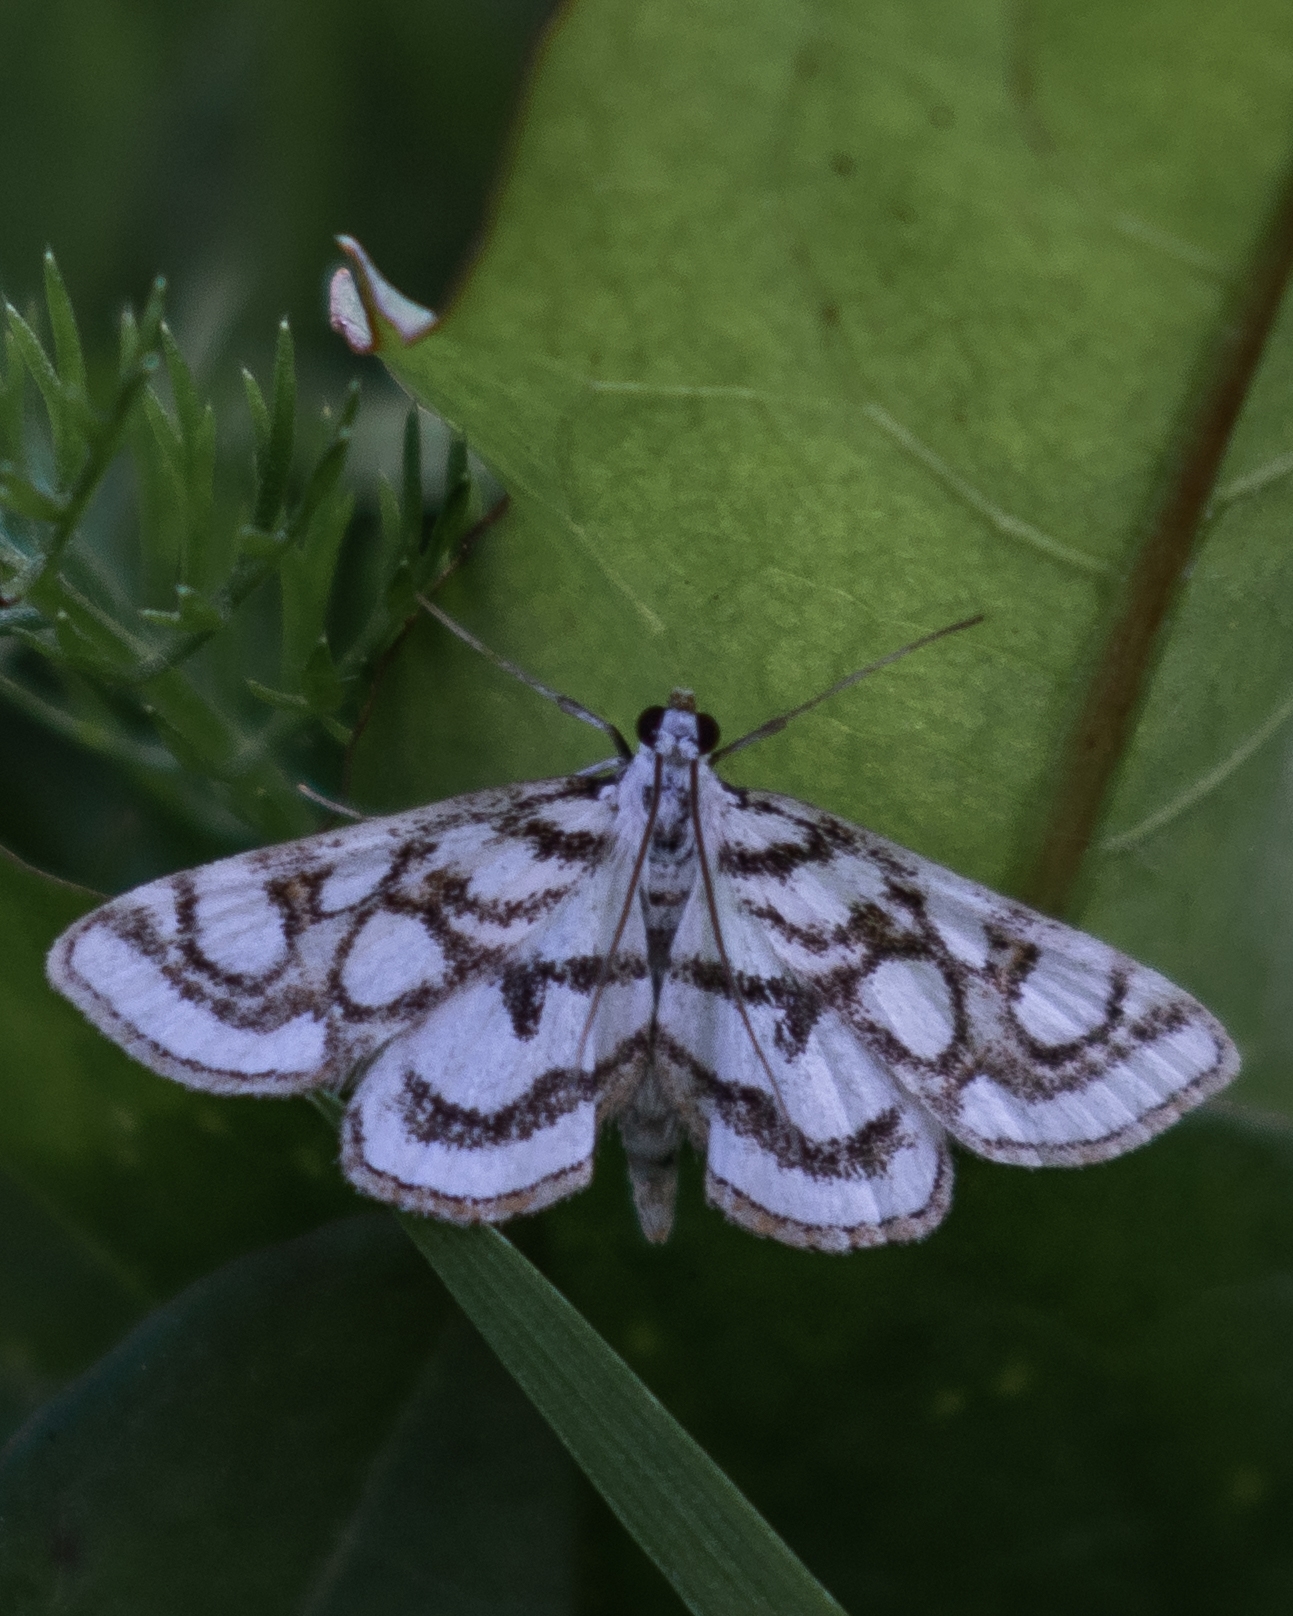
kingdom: Animalia
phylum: Arthropoda
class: Insecta
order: Lepidoptera
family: Crambidae
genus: Nymphula
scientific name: Nymphula nitidulata
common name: Beautiful china mark
